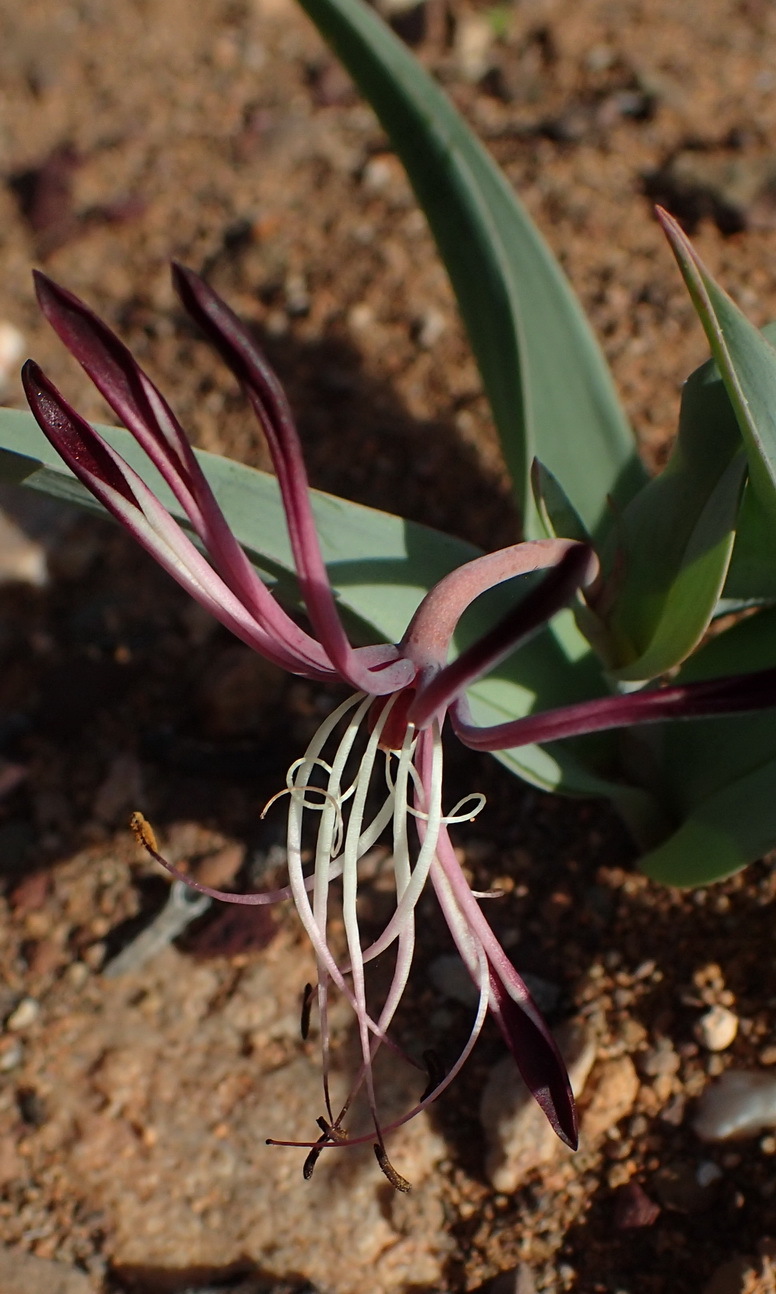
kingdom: Plantae
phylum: Tracheophyta
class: Liliopsida
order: Liliales
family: Colchicaceae
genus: Ornithoglossum
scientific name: Ornithoglossum undulatum
